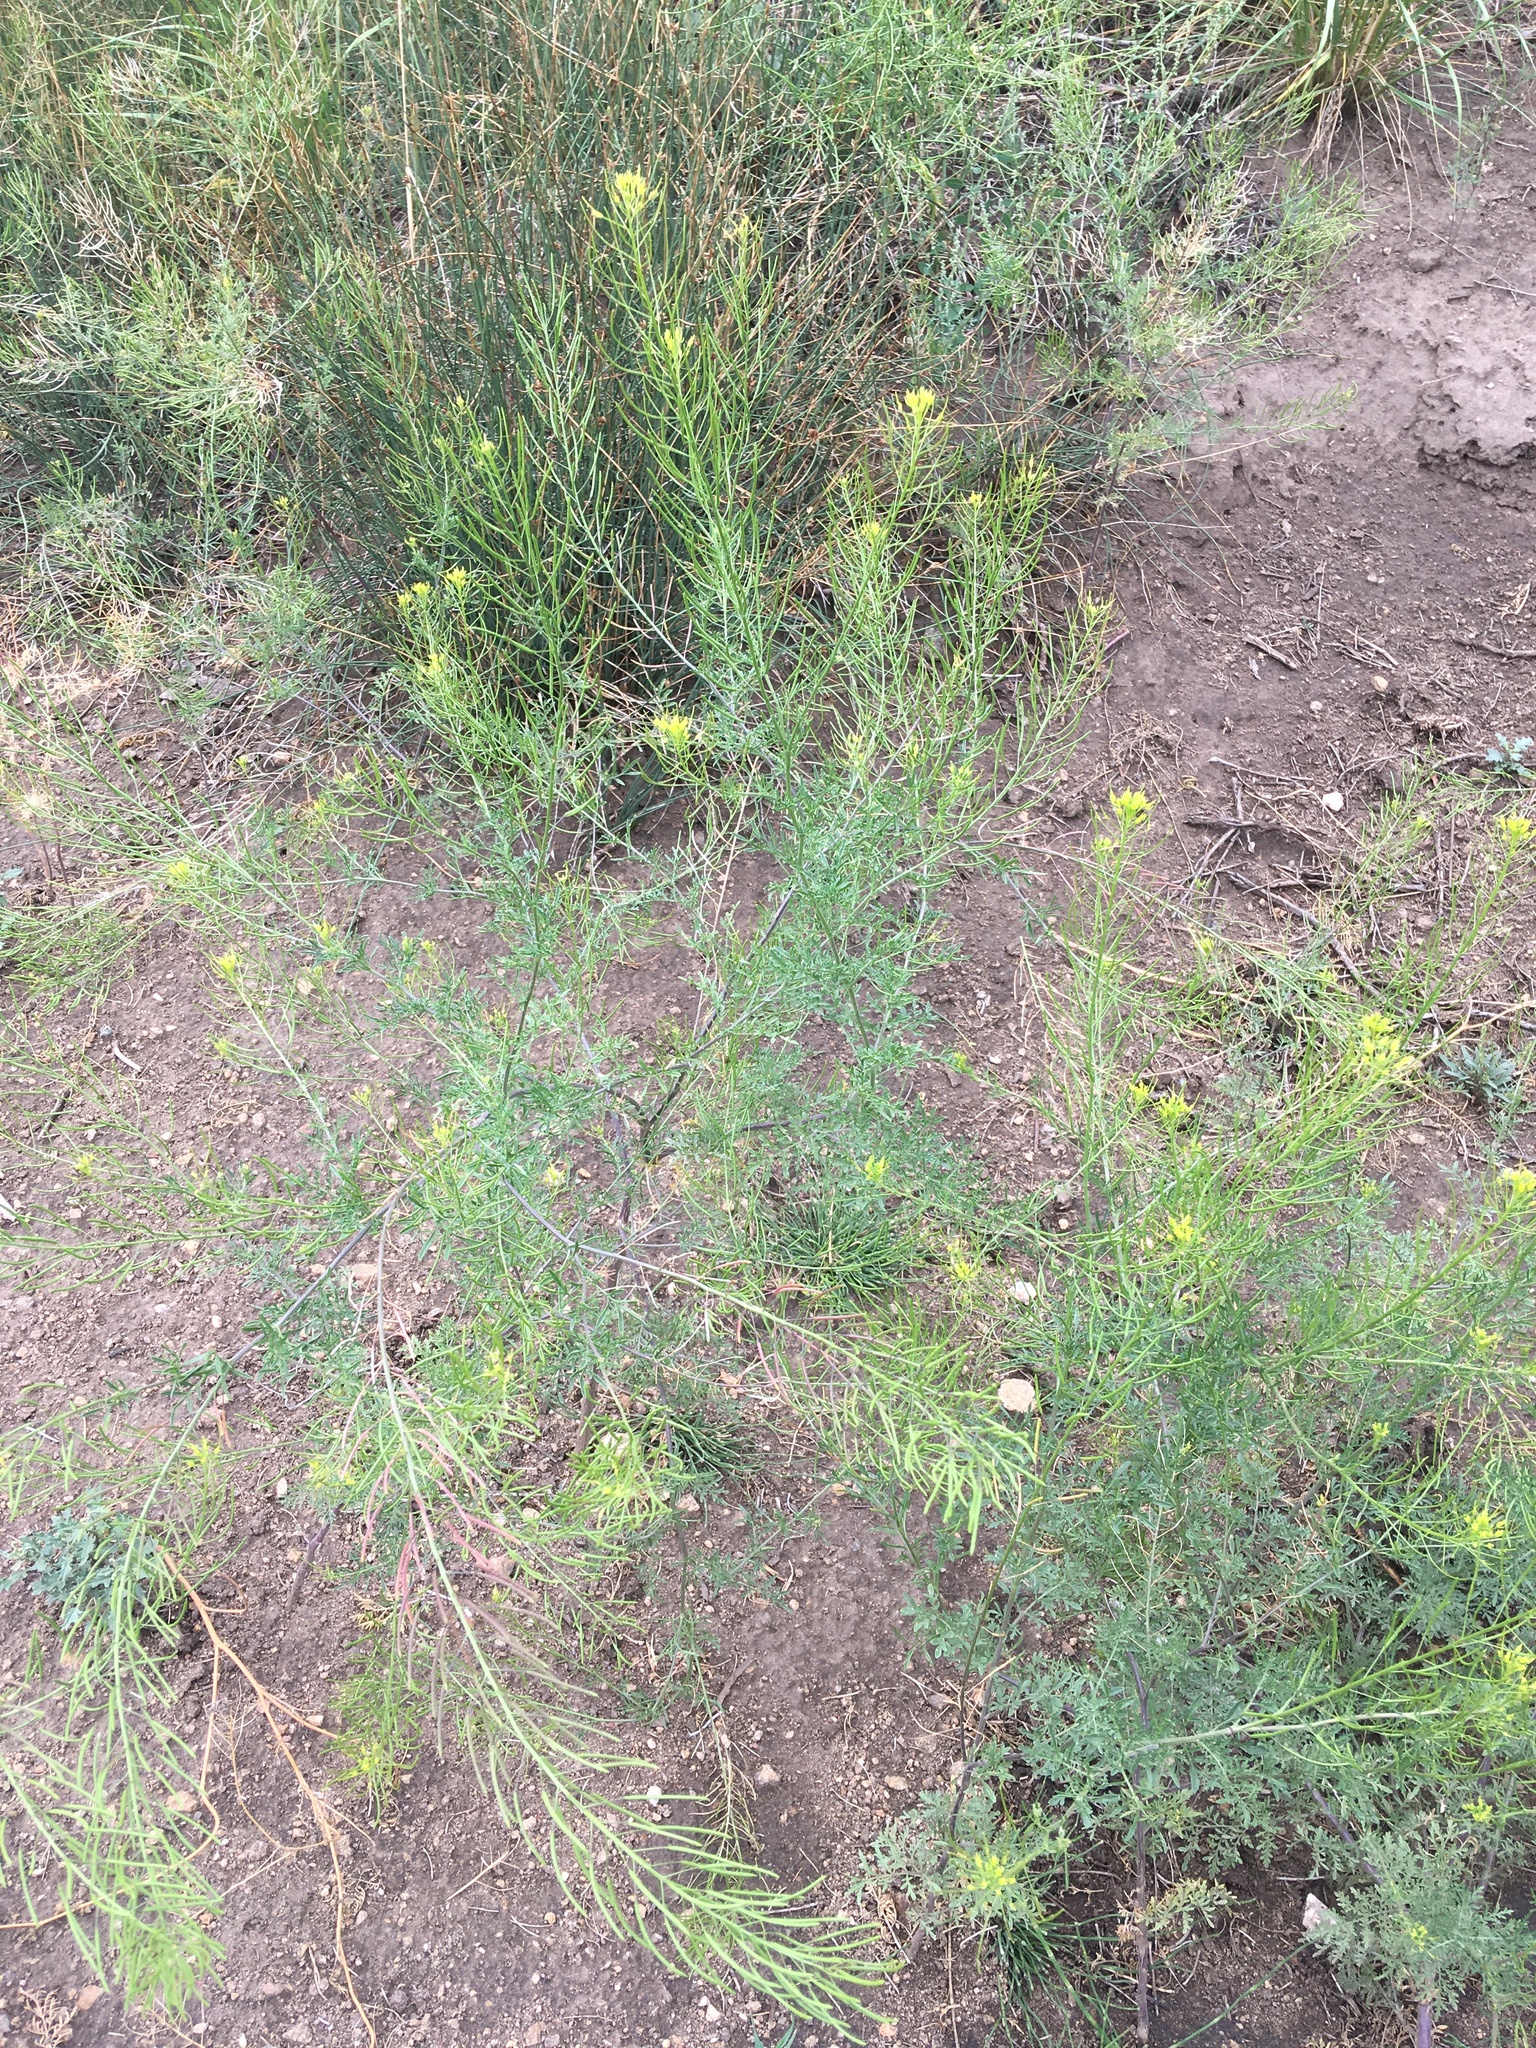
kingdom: Plantae
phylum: Tracheophyta
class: Magnoliopsida
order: Brassicales
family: Brassicaceae
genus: Descurainia
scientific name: Descurainia sophia
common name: Flixweed
